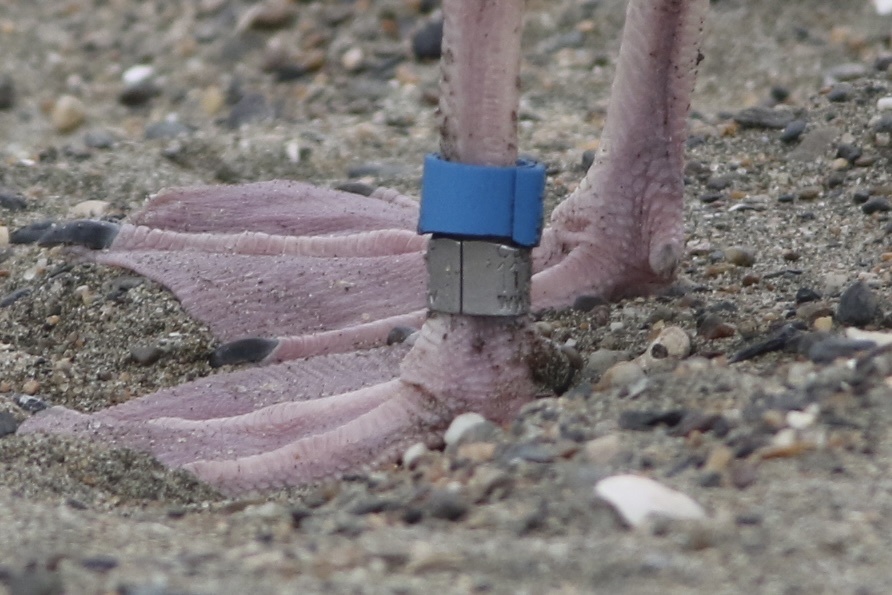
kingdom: Animalia
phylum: Chordata
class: Aves
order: Charadriiformes
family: Laridae
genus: Larus
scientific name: Larus occidentalis
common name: Western gull
